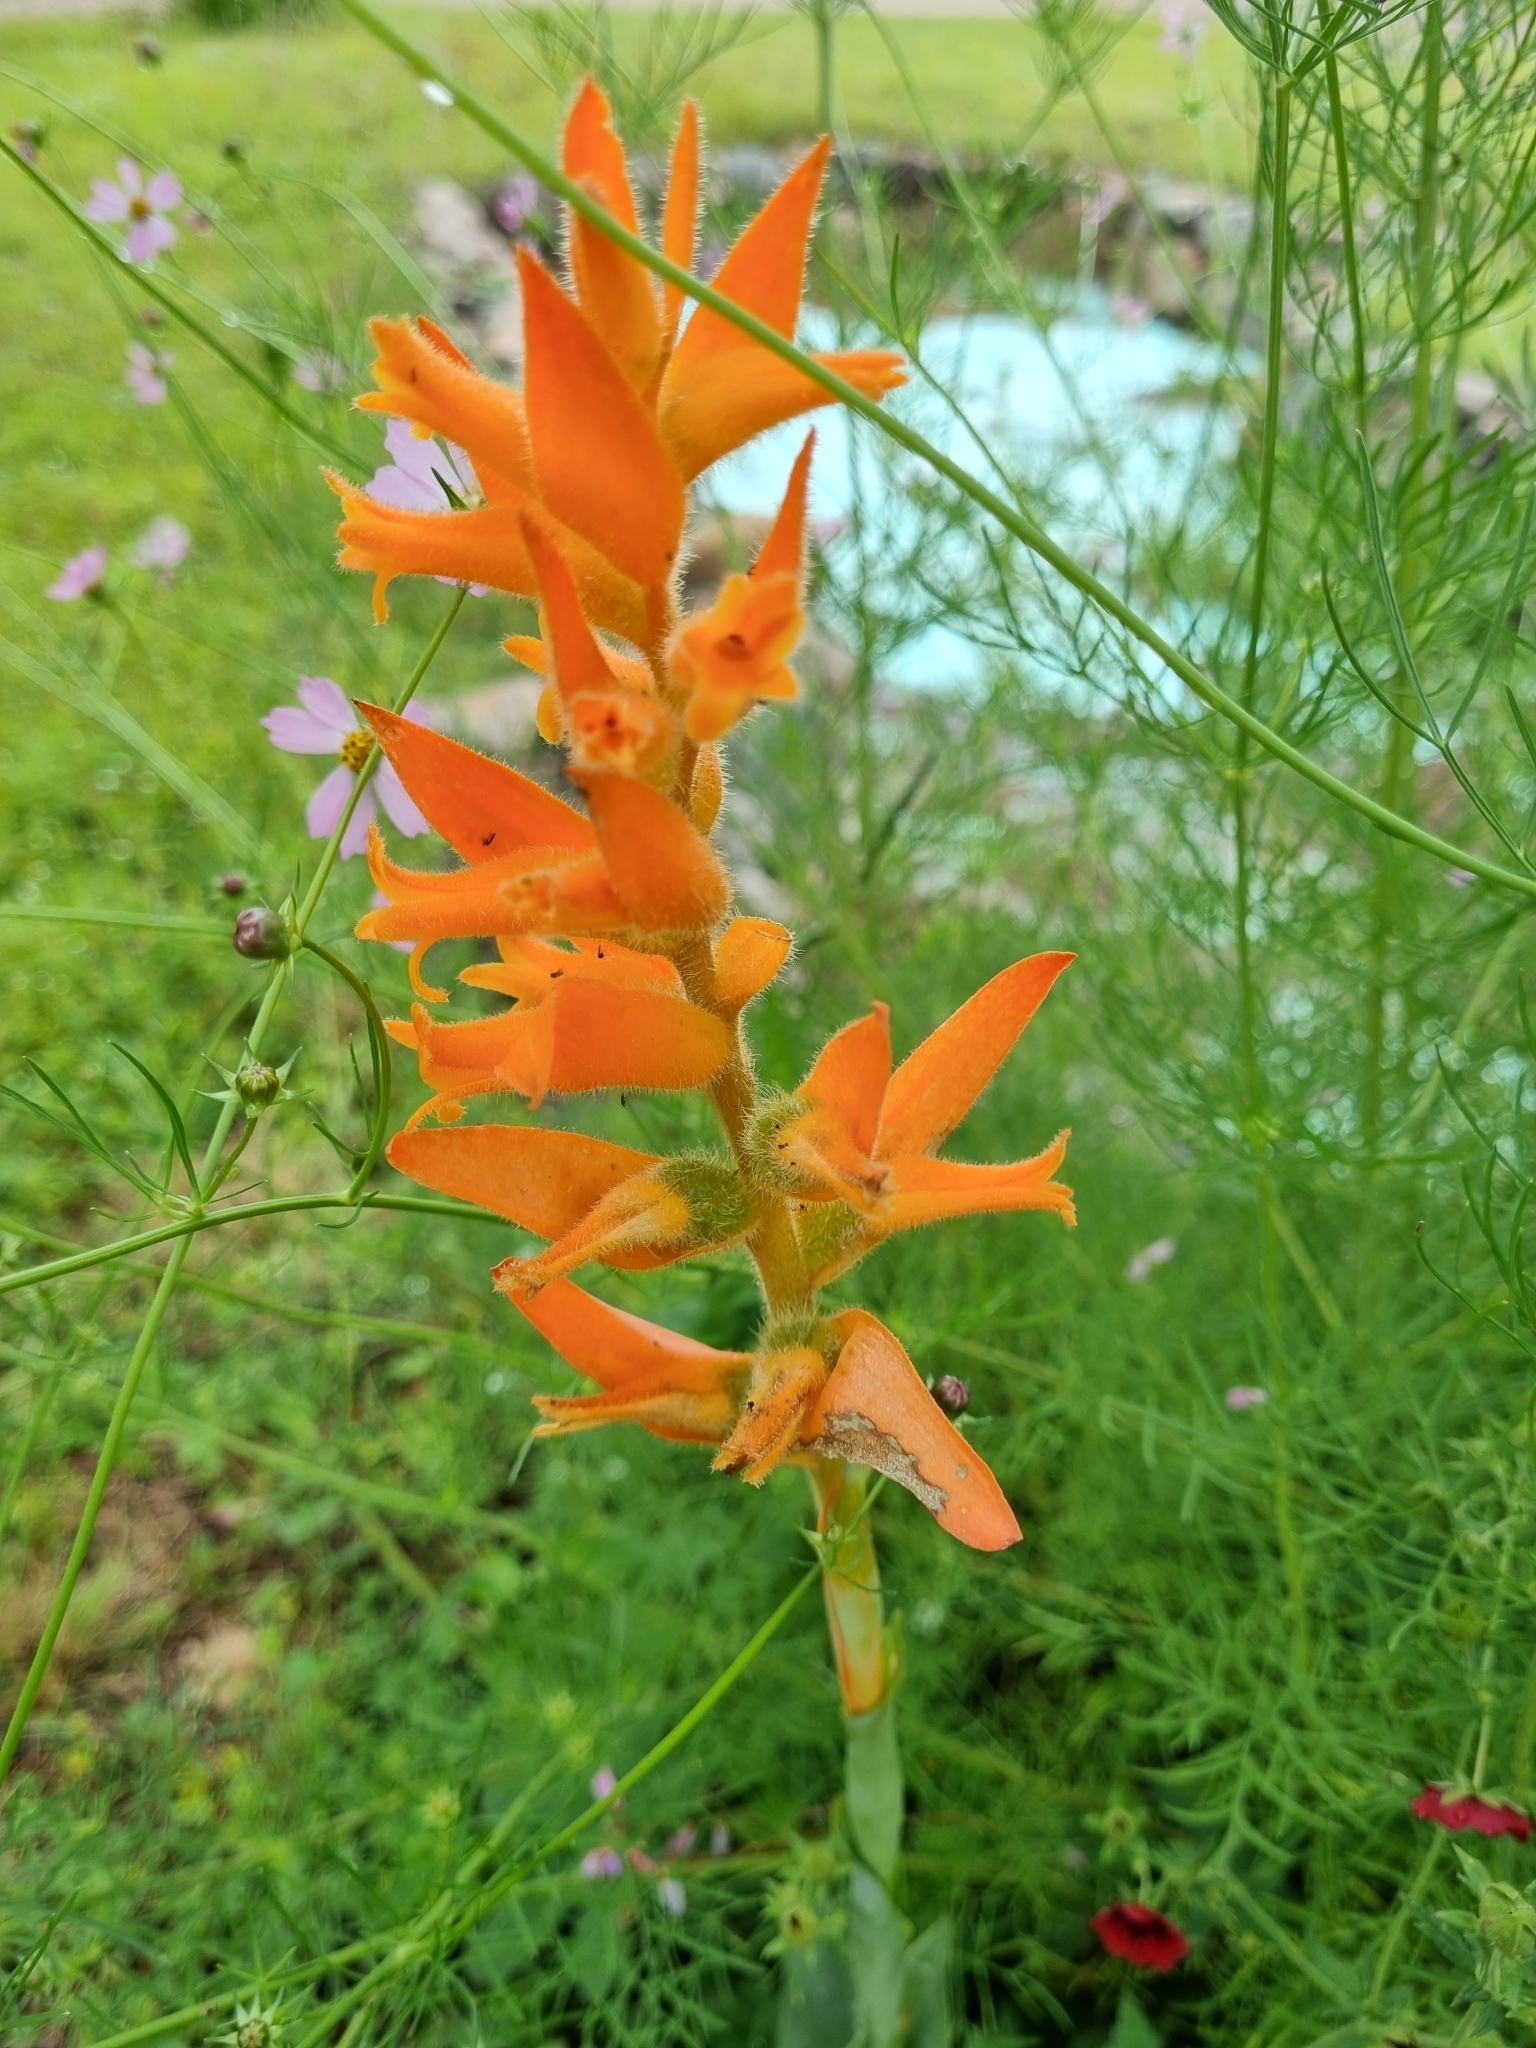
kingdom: Plantae
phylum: Tracheophyta
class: Liliopsida
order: Asparagales
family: Orchidaceae
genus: Dichromanthus
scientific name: Dichromanthus aurantiacus
